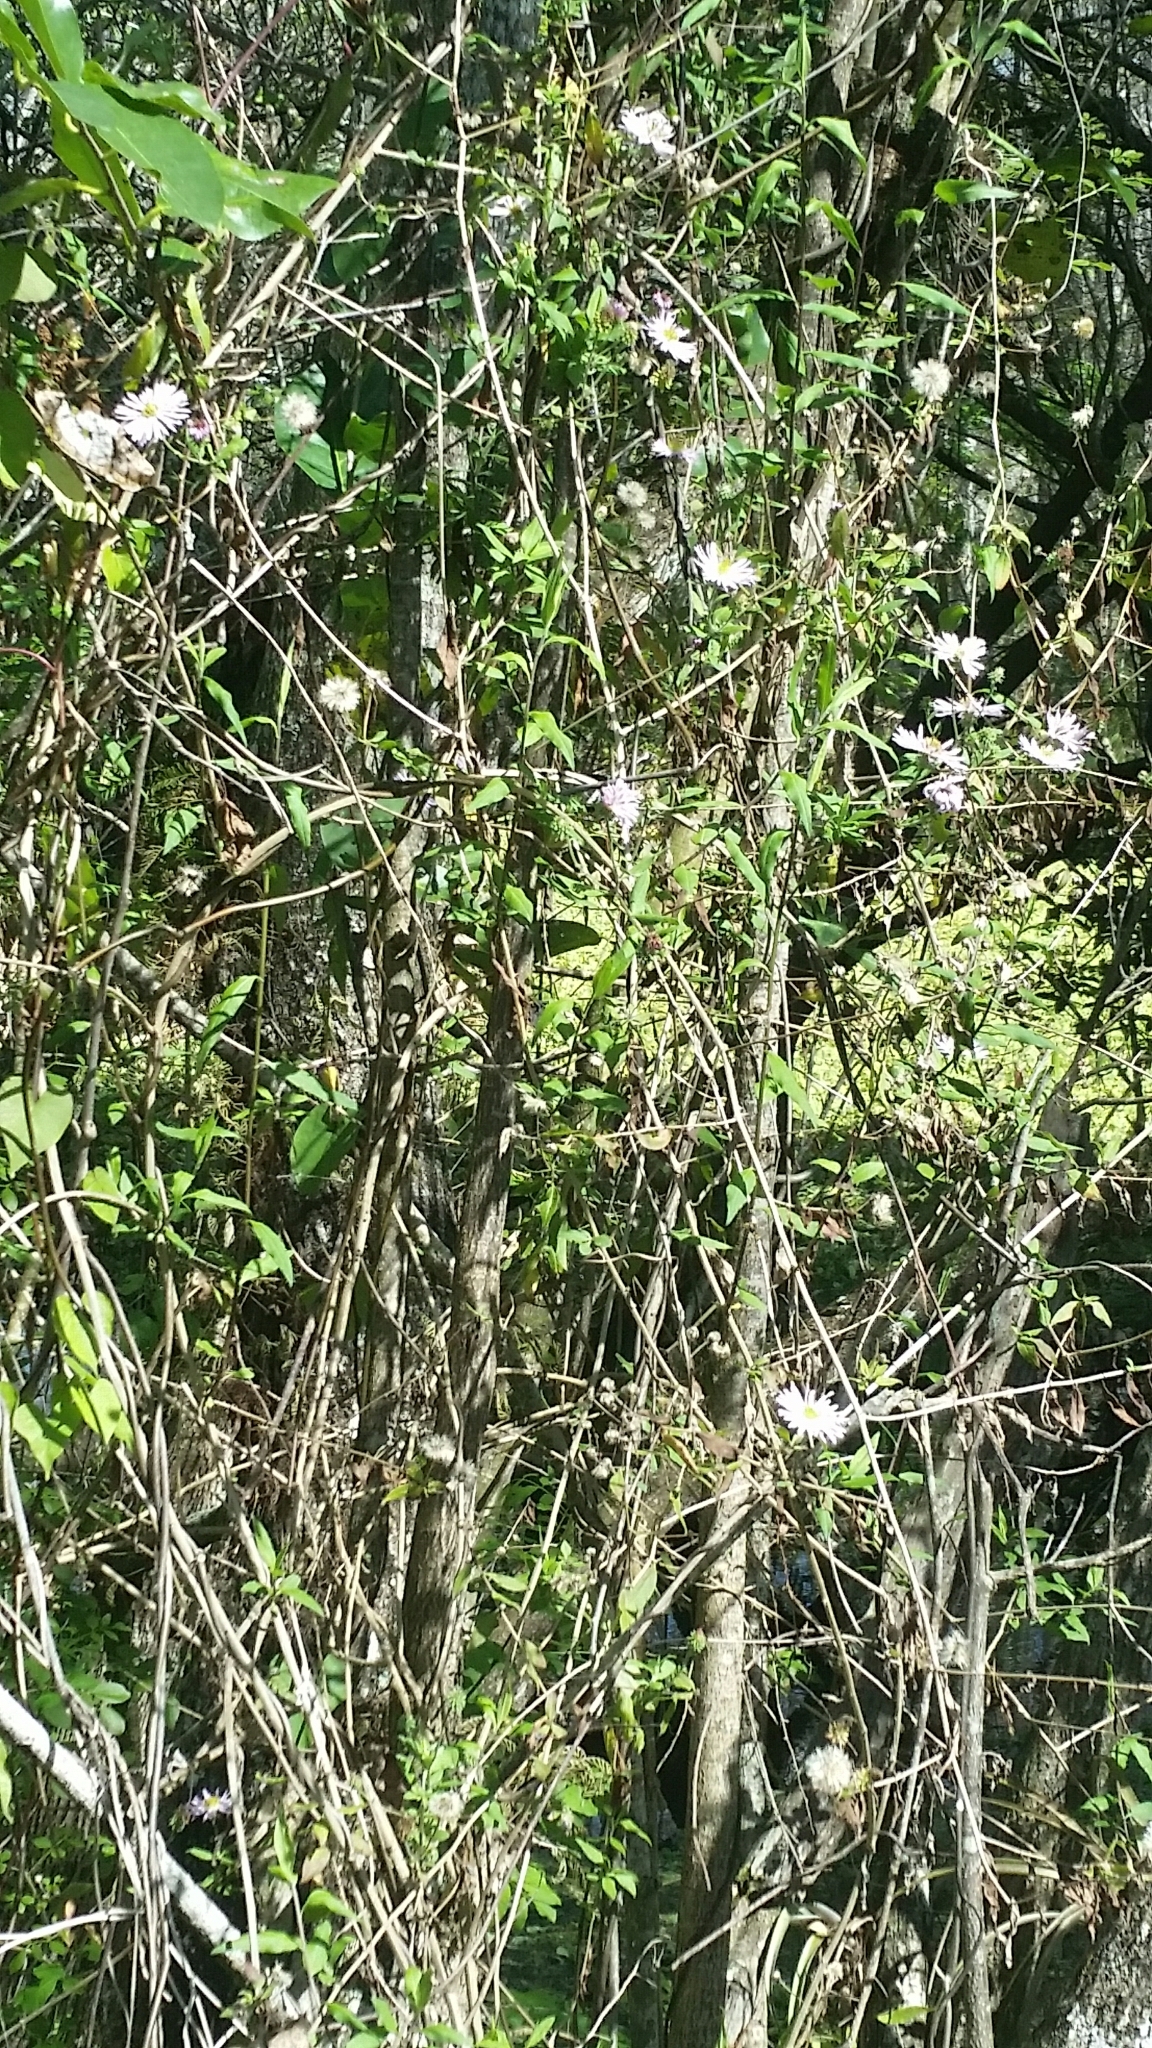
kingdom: Plantae
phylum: Tracheophyta
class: Magnoliopsida
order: Asterales
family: Asteraceae
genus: Ampelaster
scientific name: Ampelaster carolinianus
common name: Climbing aster
